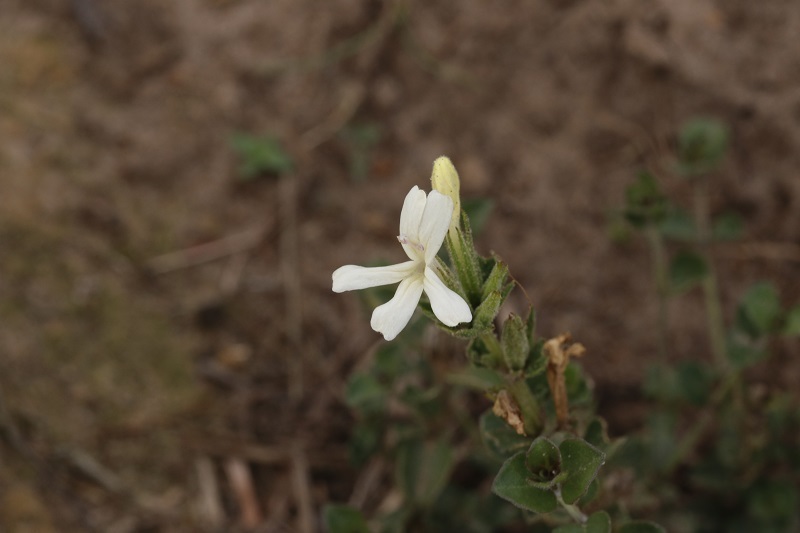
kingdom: Plantae
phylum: Tracheophyta
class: Magnoliopsida
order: Lamiales
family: Acanthaceae
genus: Dyschoriste
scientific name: Dyschoriste setigera
